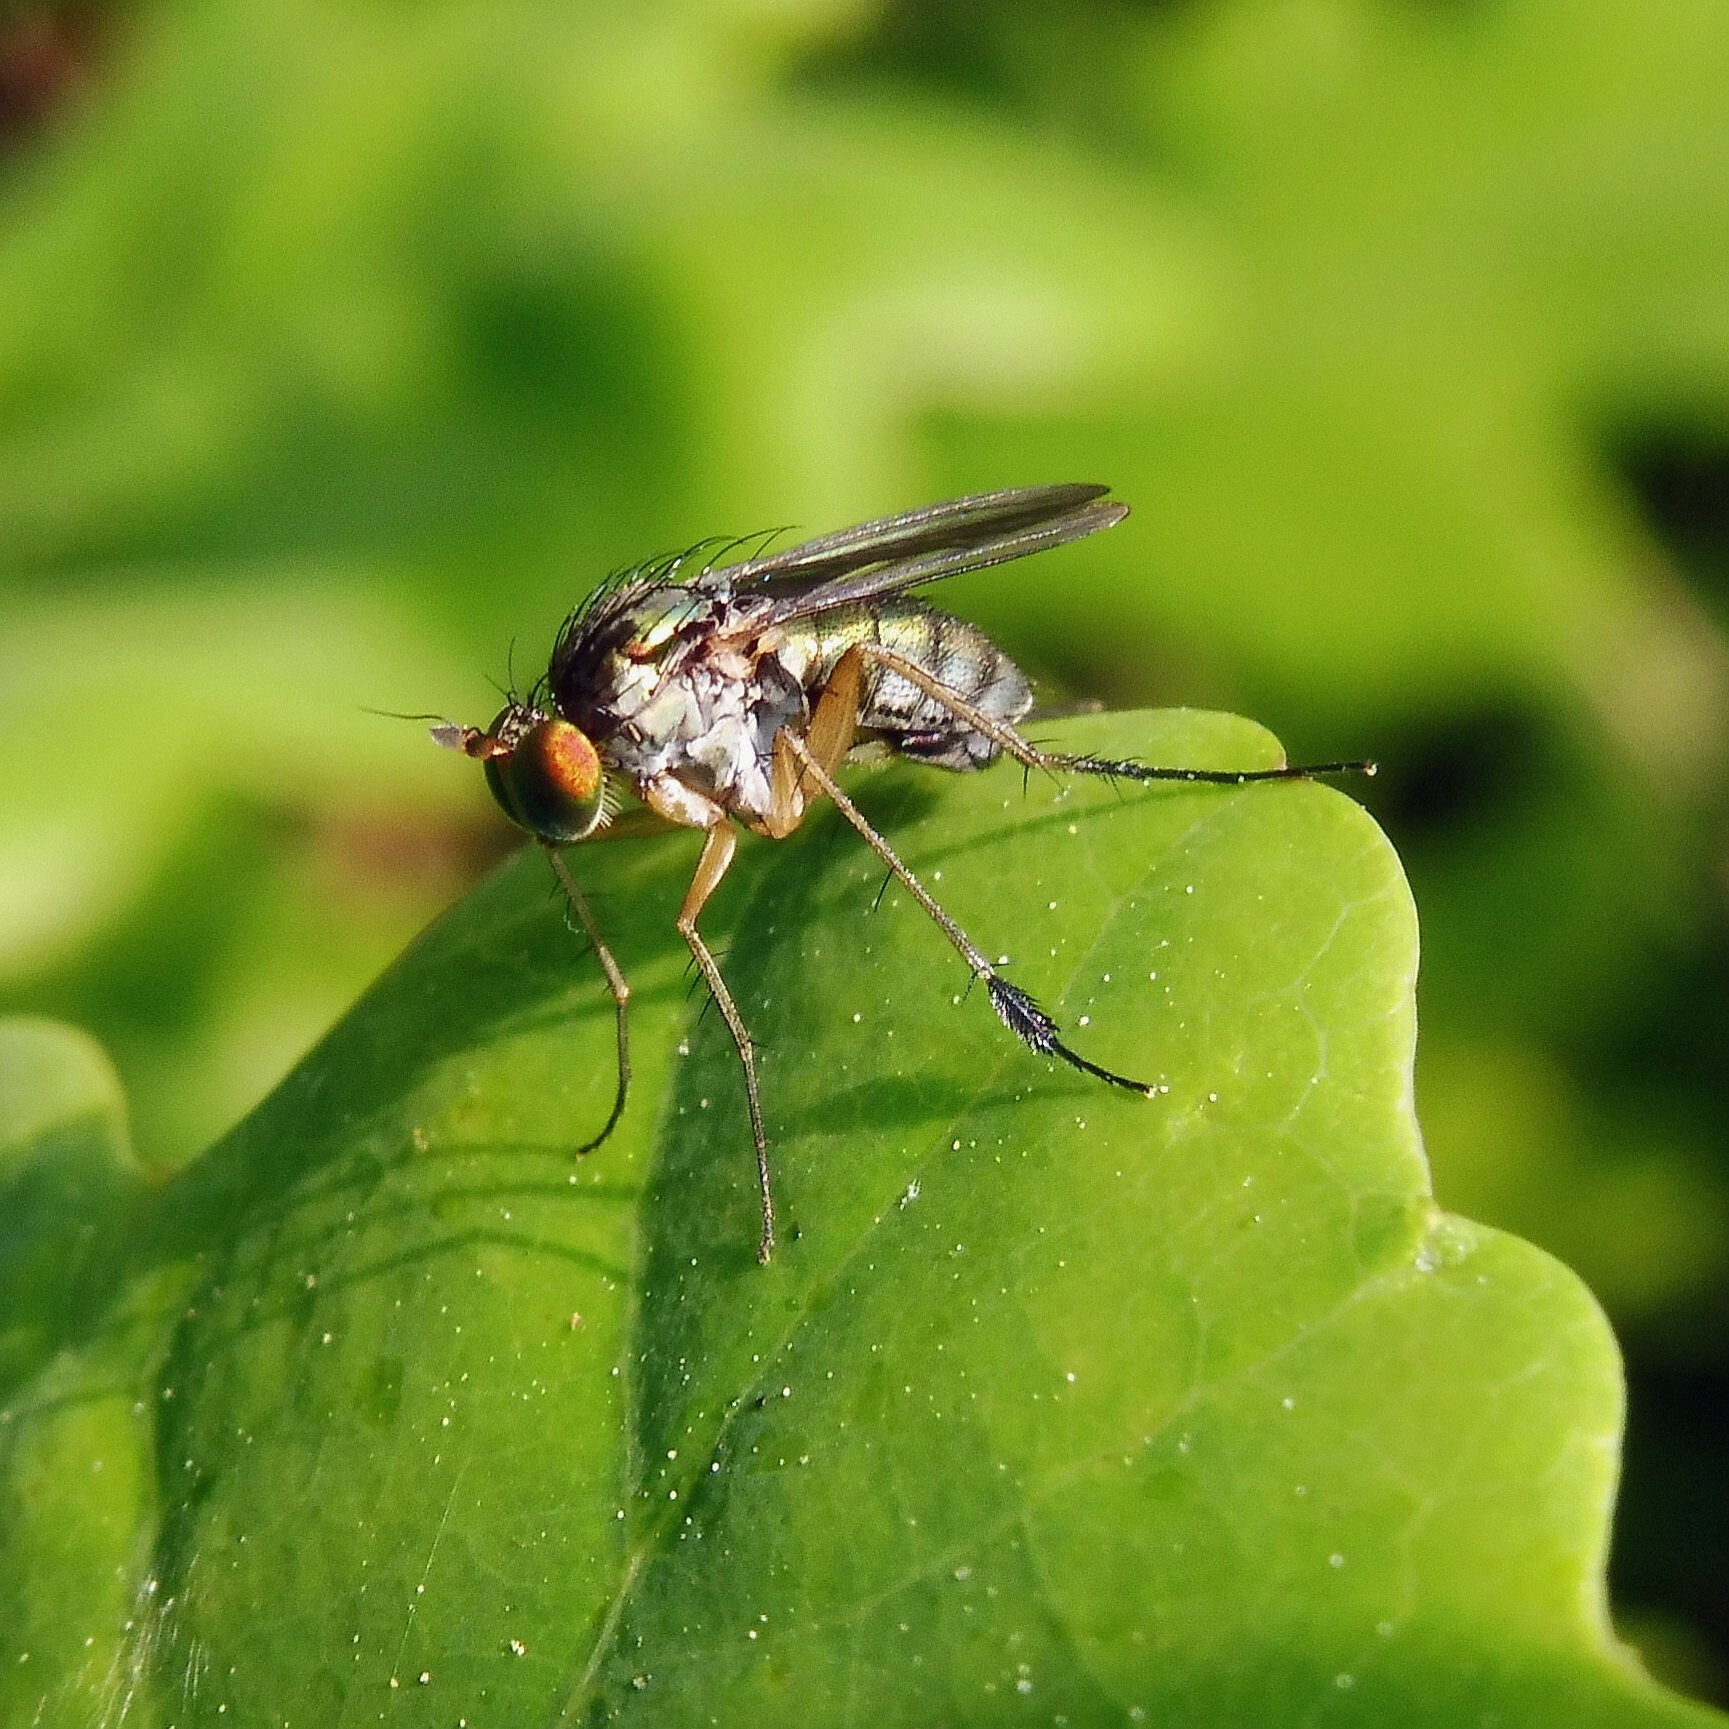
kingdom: Animalia
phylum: Arthropoda
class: Insecta
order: Diptera
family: Dolichopodidae
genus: Dolichopus
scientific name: Dolichopus wahlbergi
